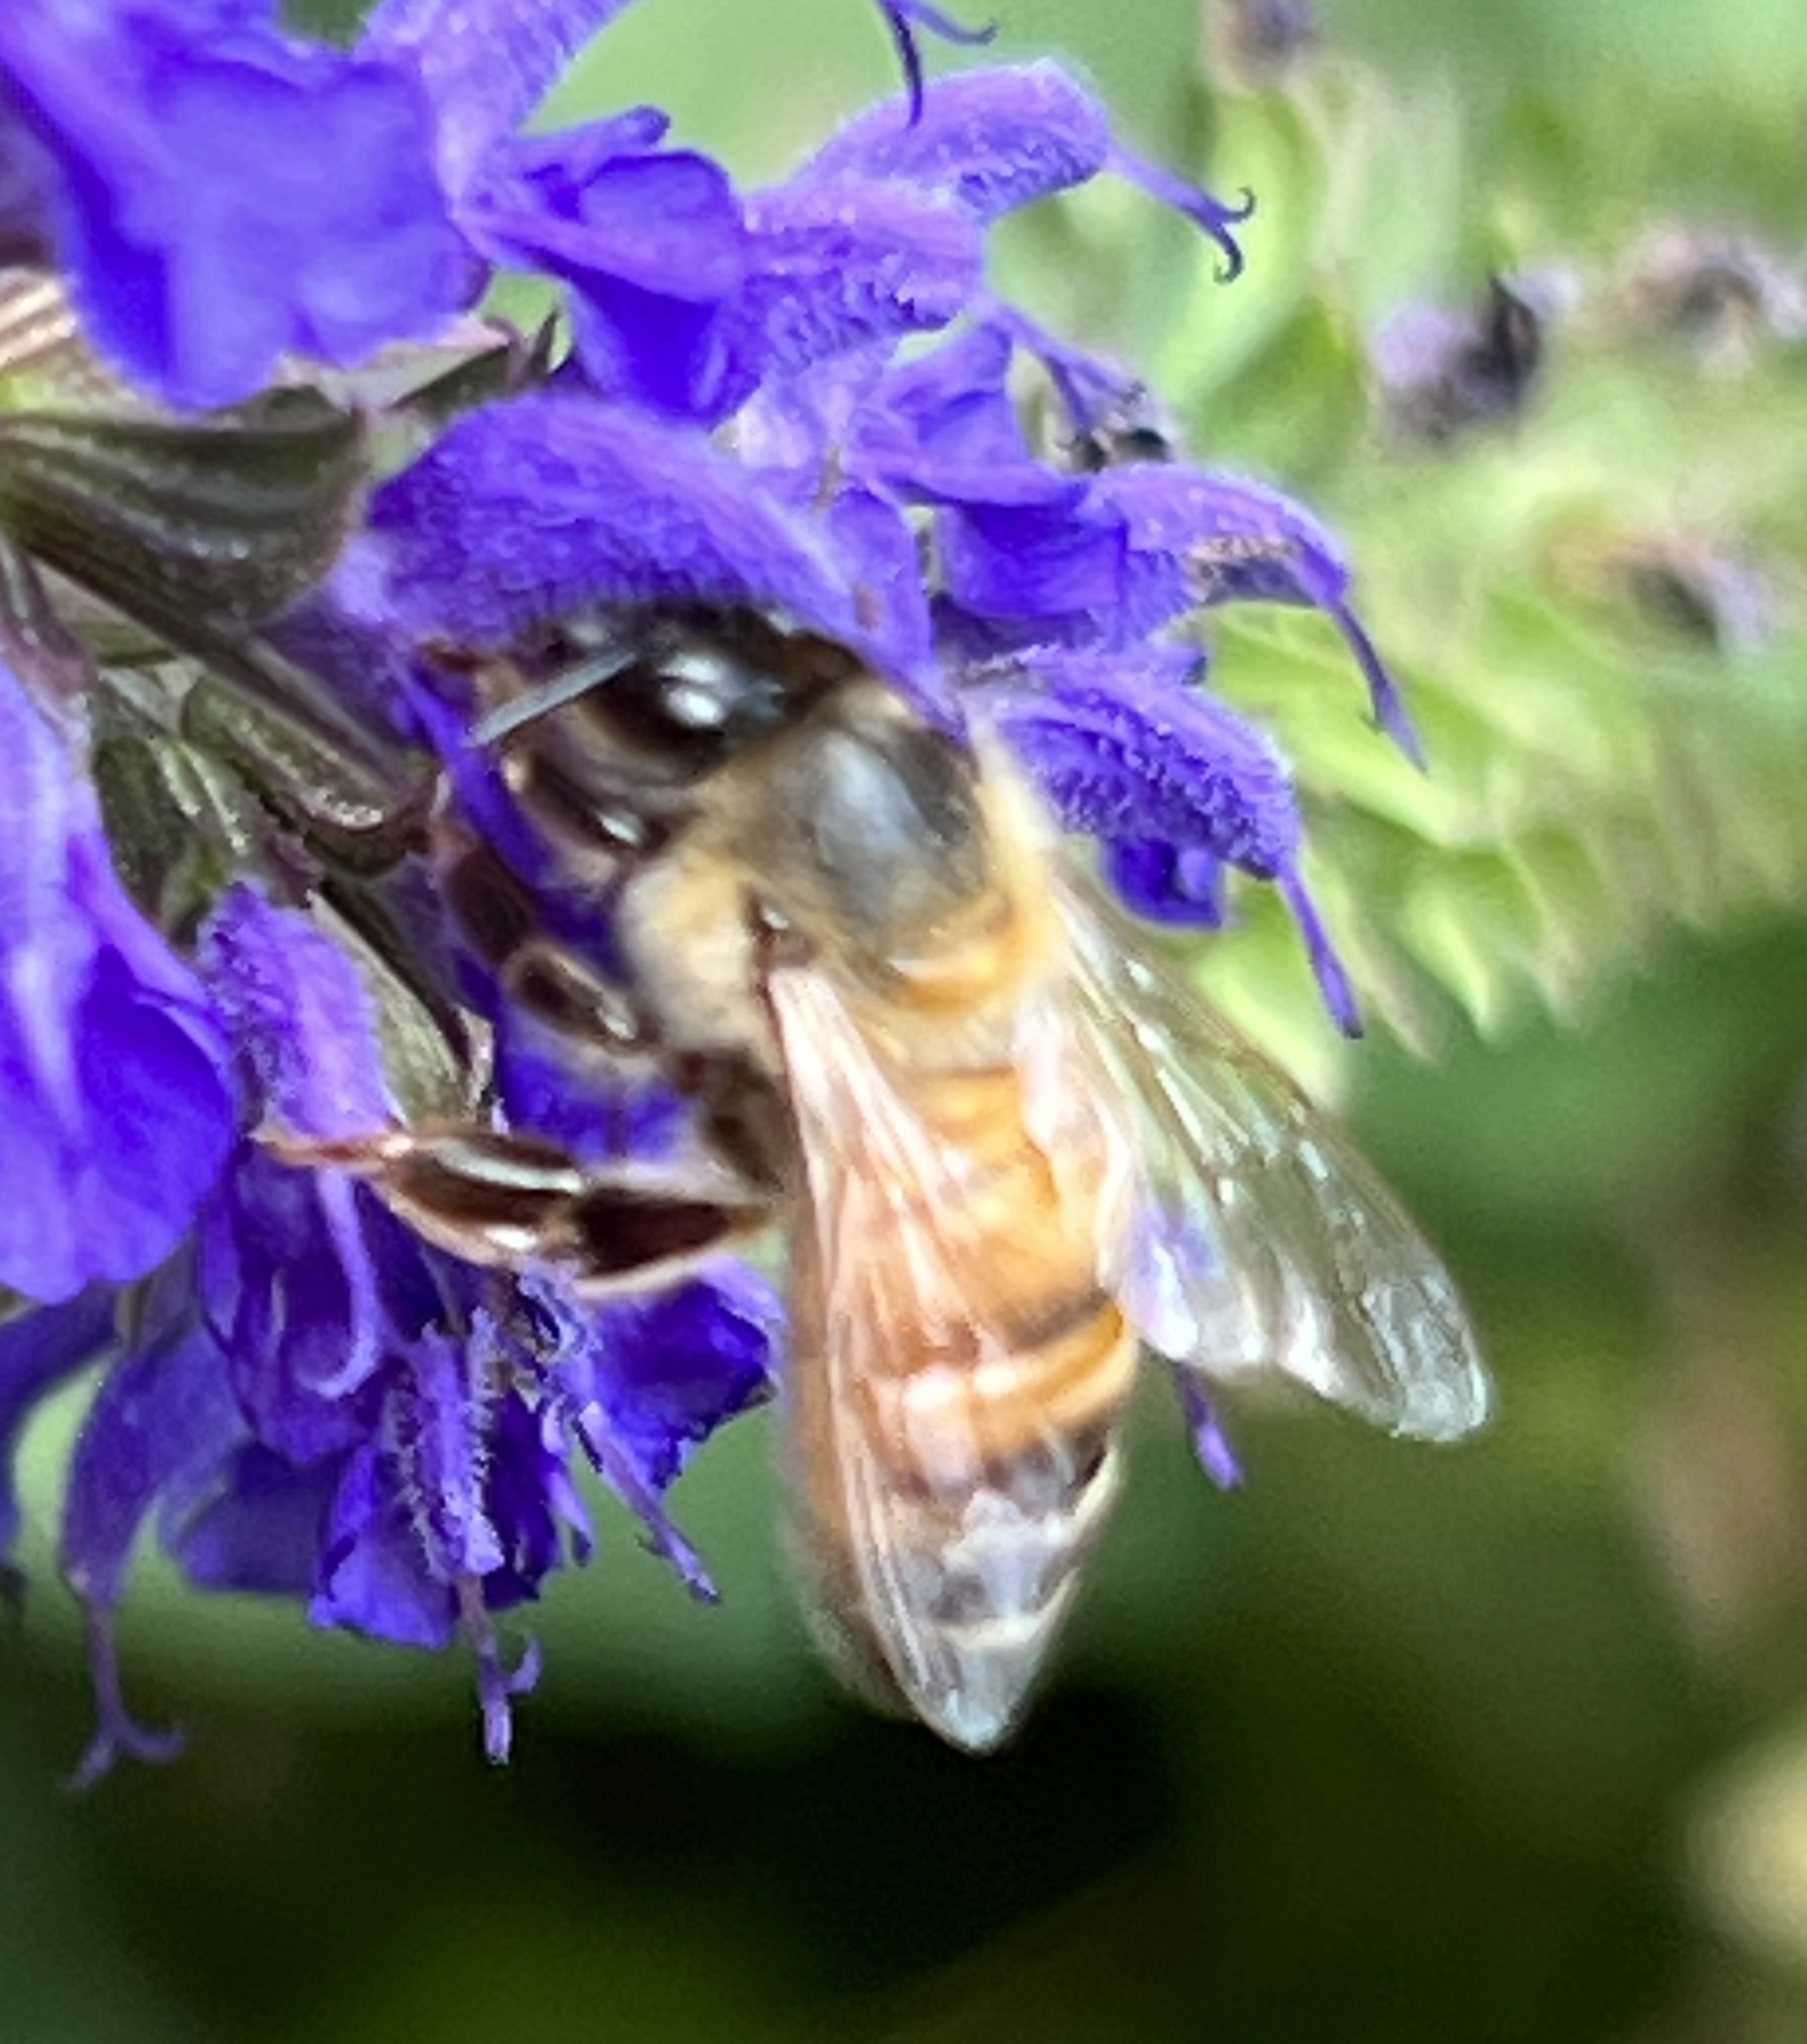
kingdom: Animalia
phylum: Arthropoda
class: Insecta
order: Hymenoptera
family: Apidae
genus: Apis
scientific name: Apis mellifera
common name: Honey bee
